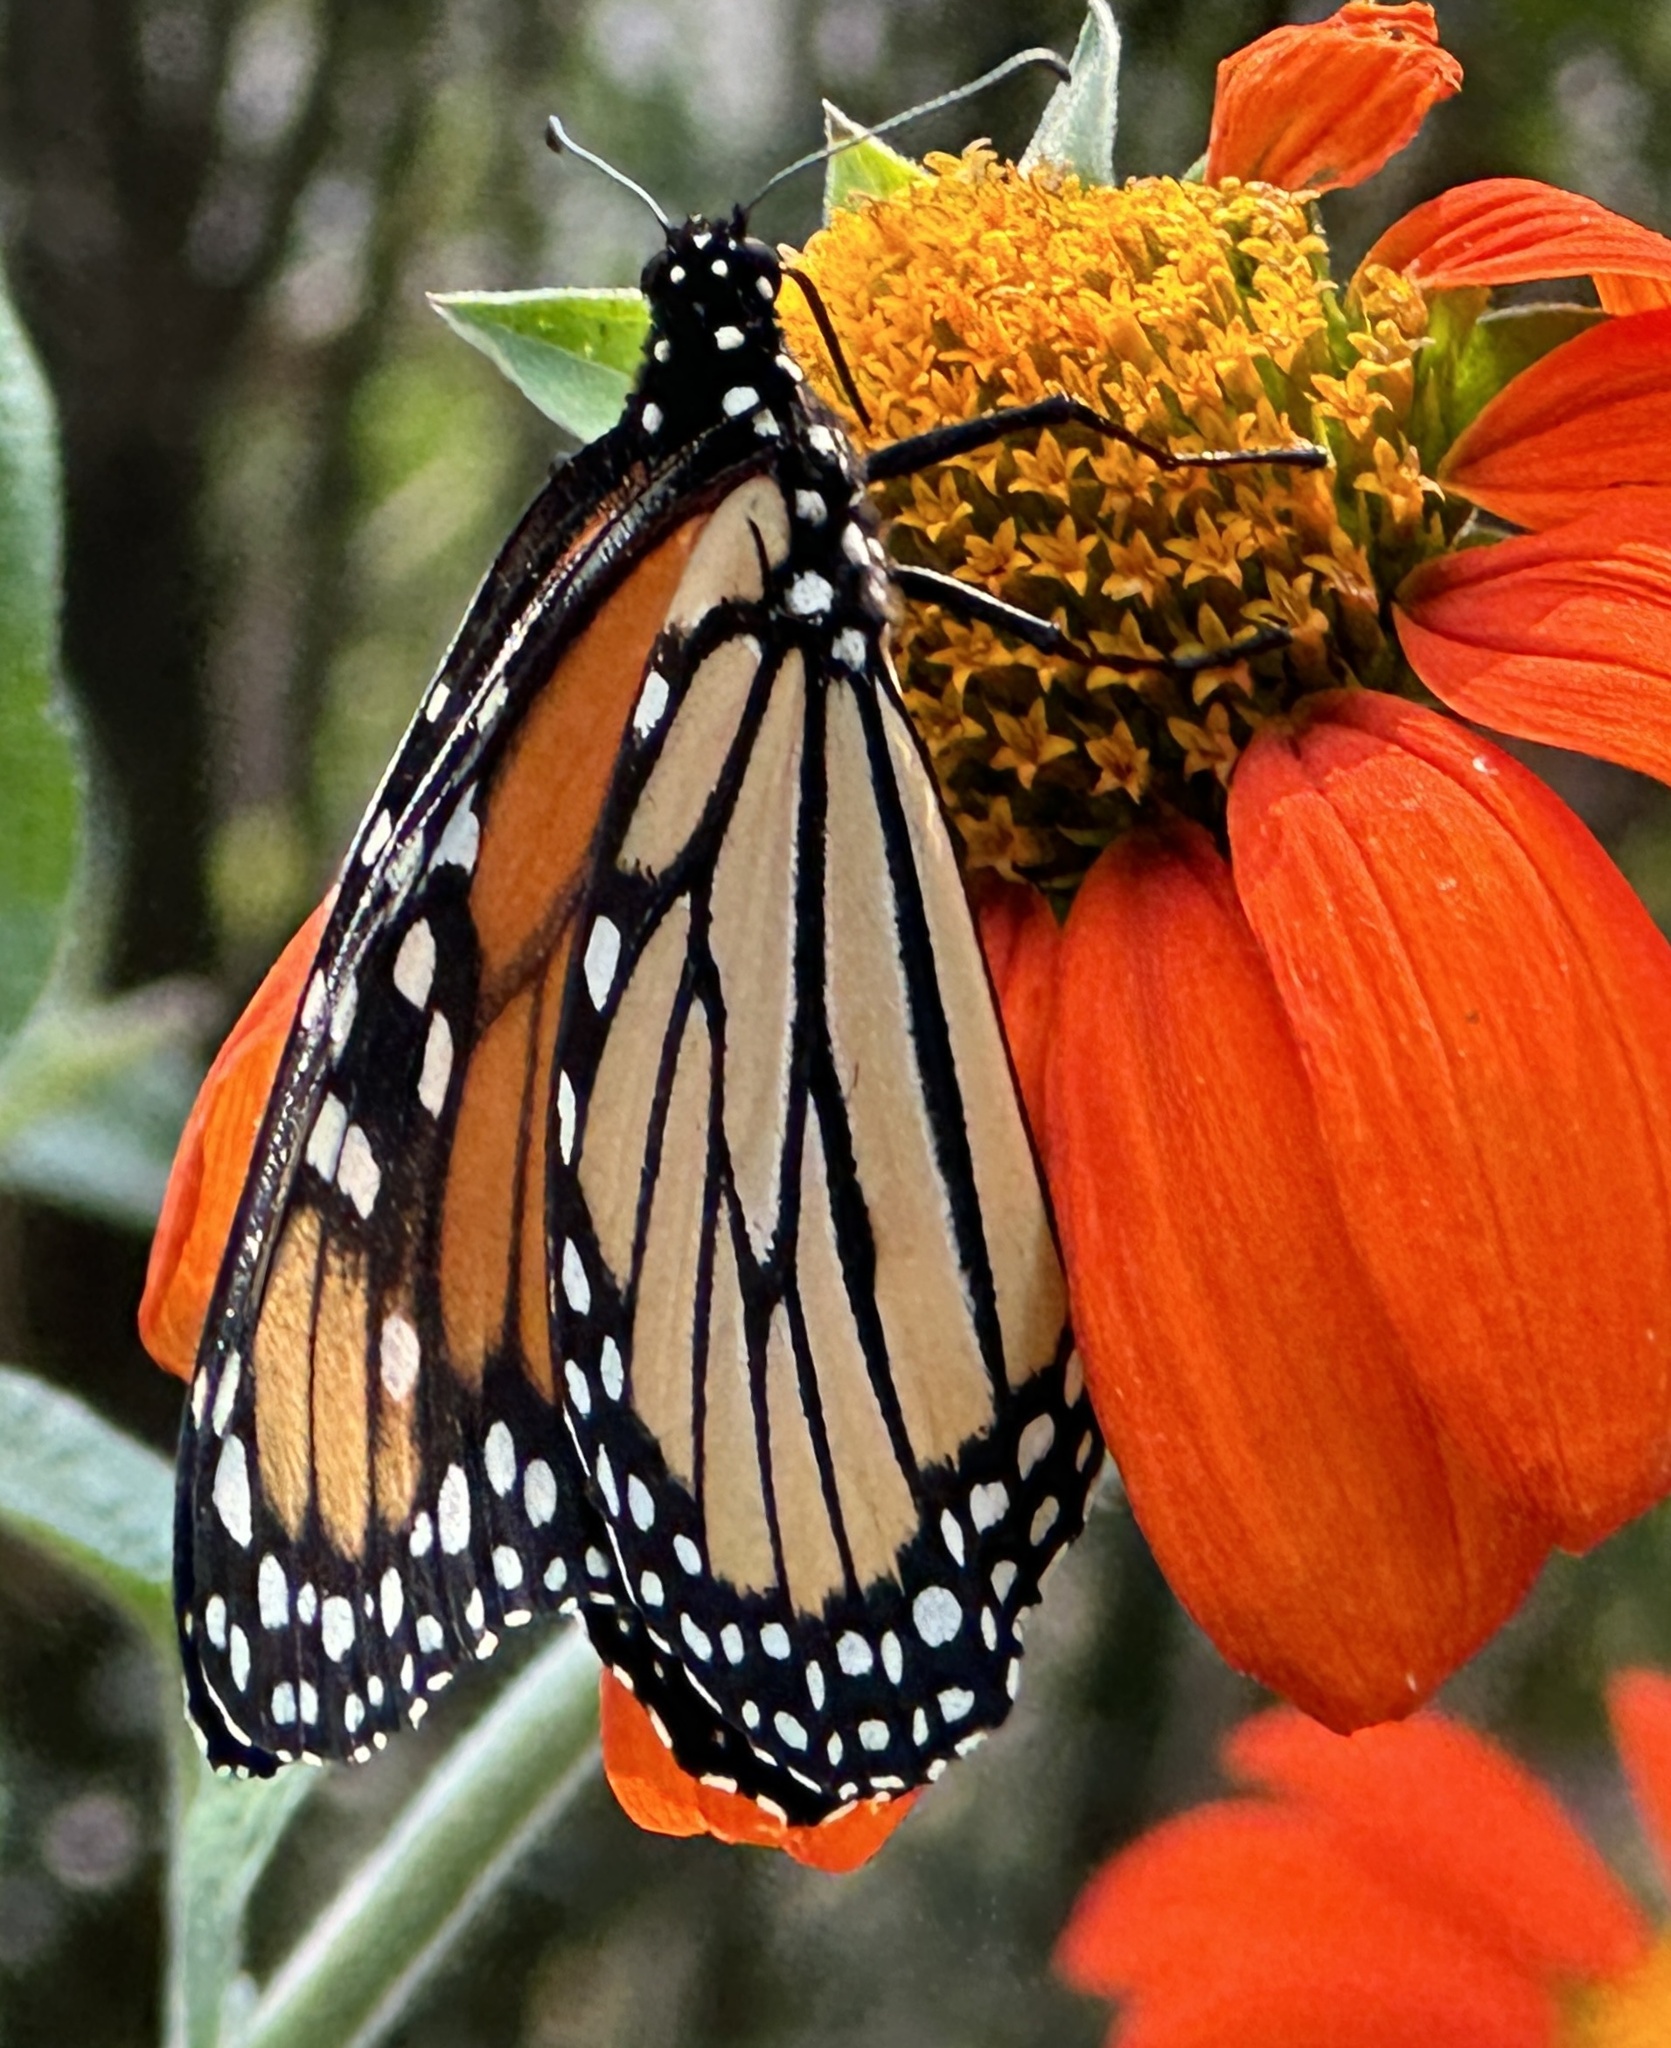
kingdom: Animalia
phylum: Arthropoda
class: Insecta
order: Lepidoptera
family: Nymphalidae
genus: Danaus
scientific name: Danaus plexippus
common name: Monarch
